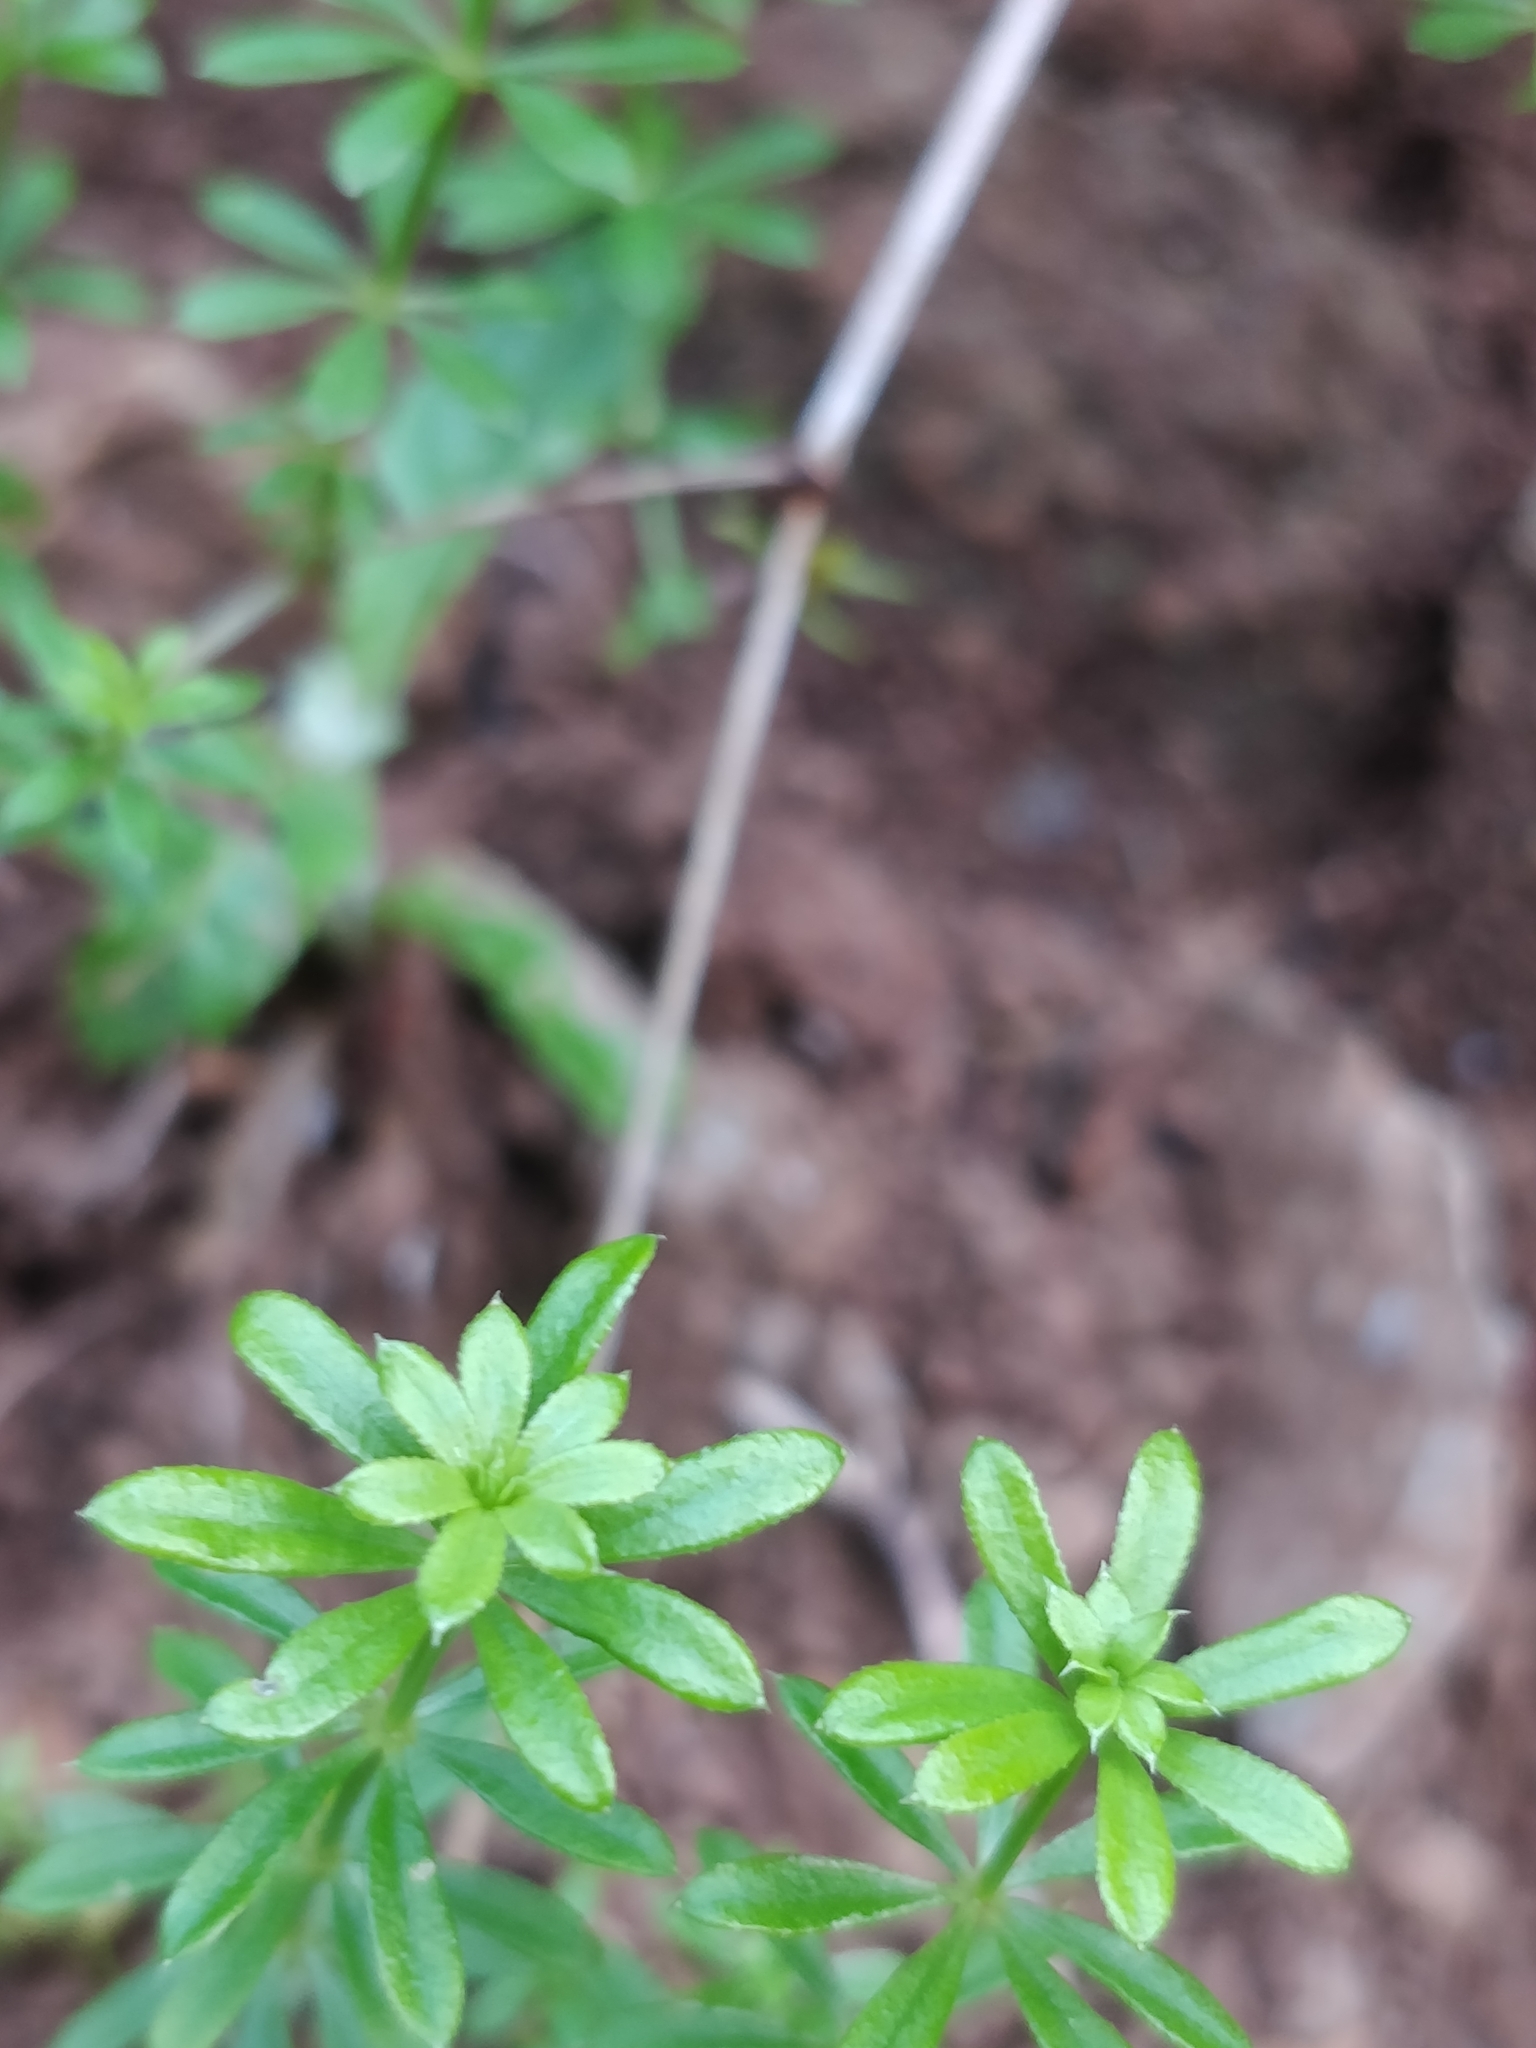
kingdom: Plantae
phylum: Tracheophyta
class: Magnoliopsida
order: Gentianales
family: Rubiaceae
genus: Galium
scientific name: Galium verrucosum
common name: Warty bedstraw
